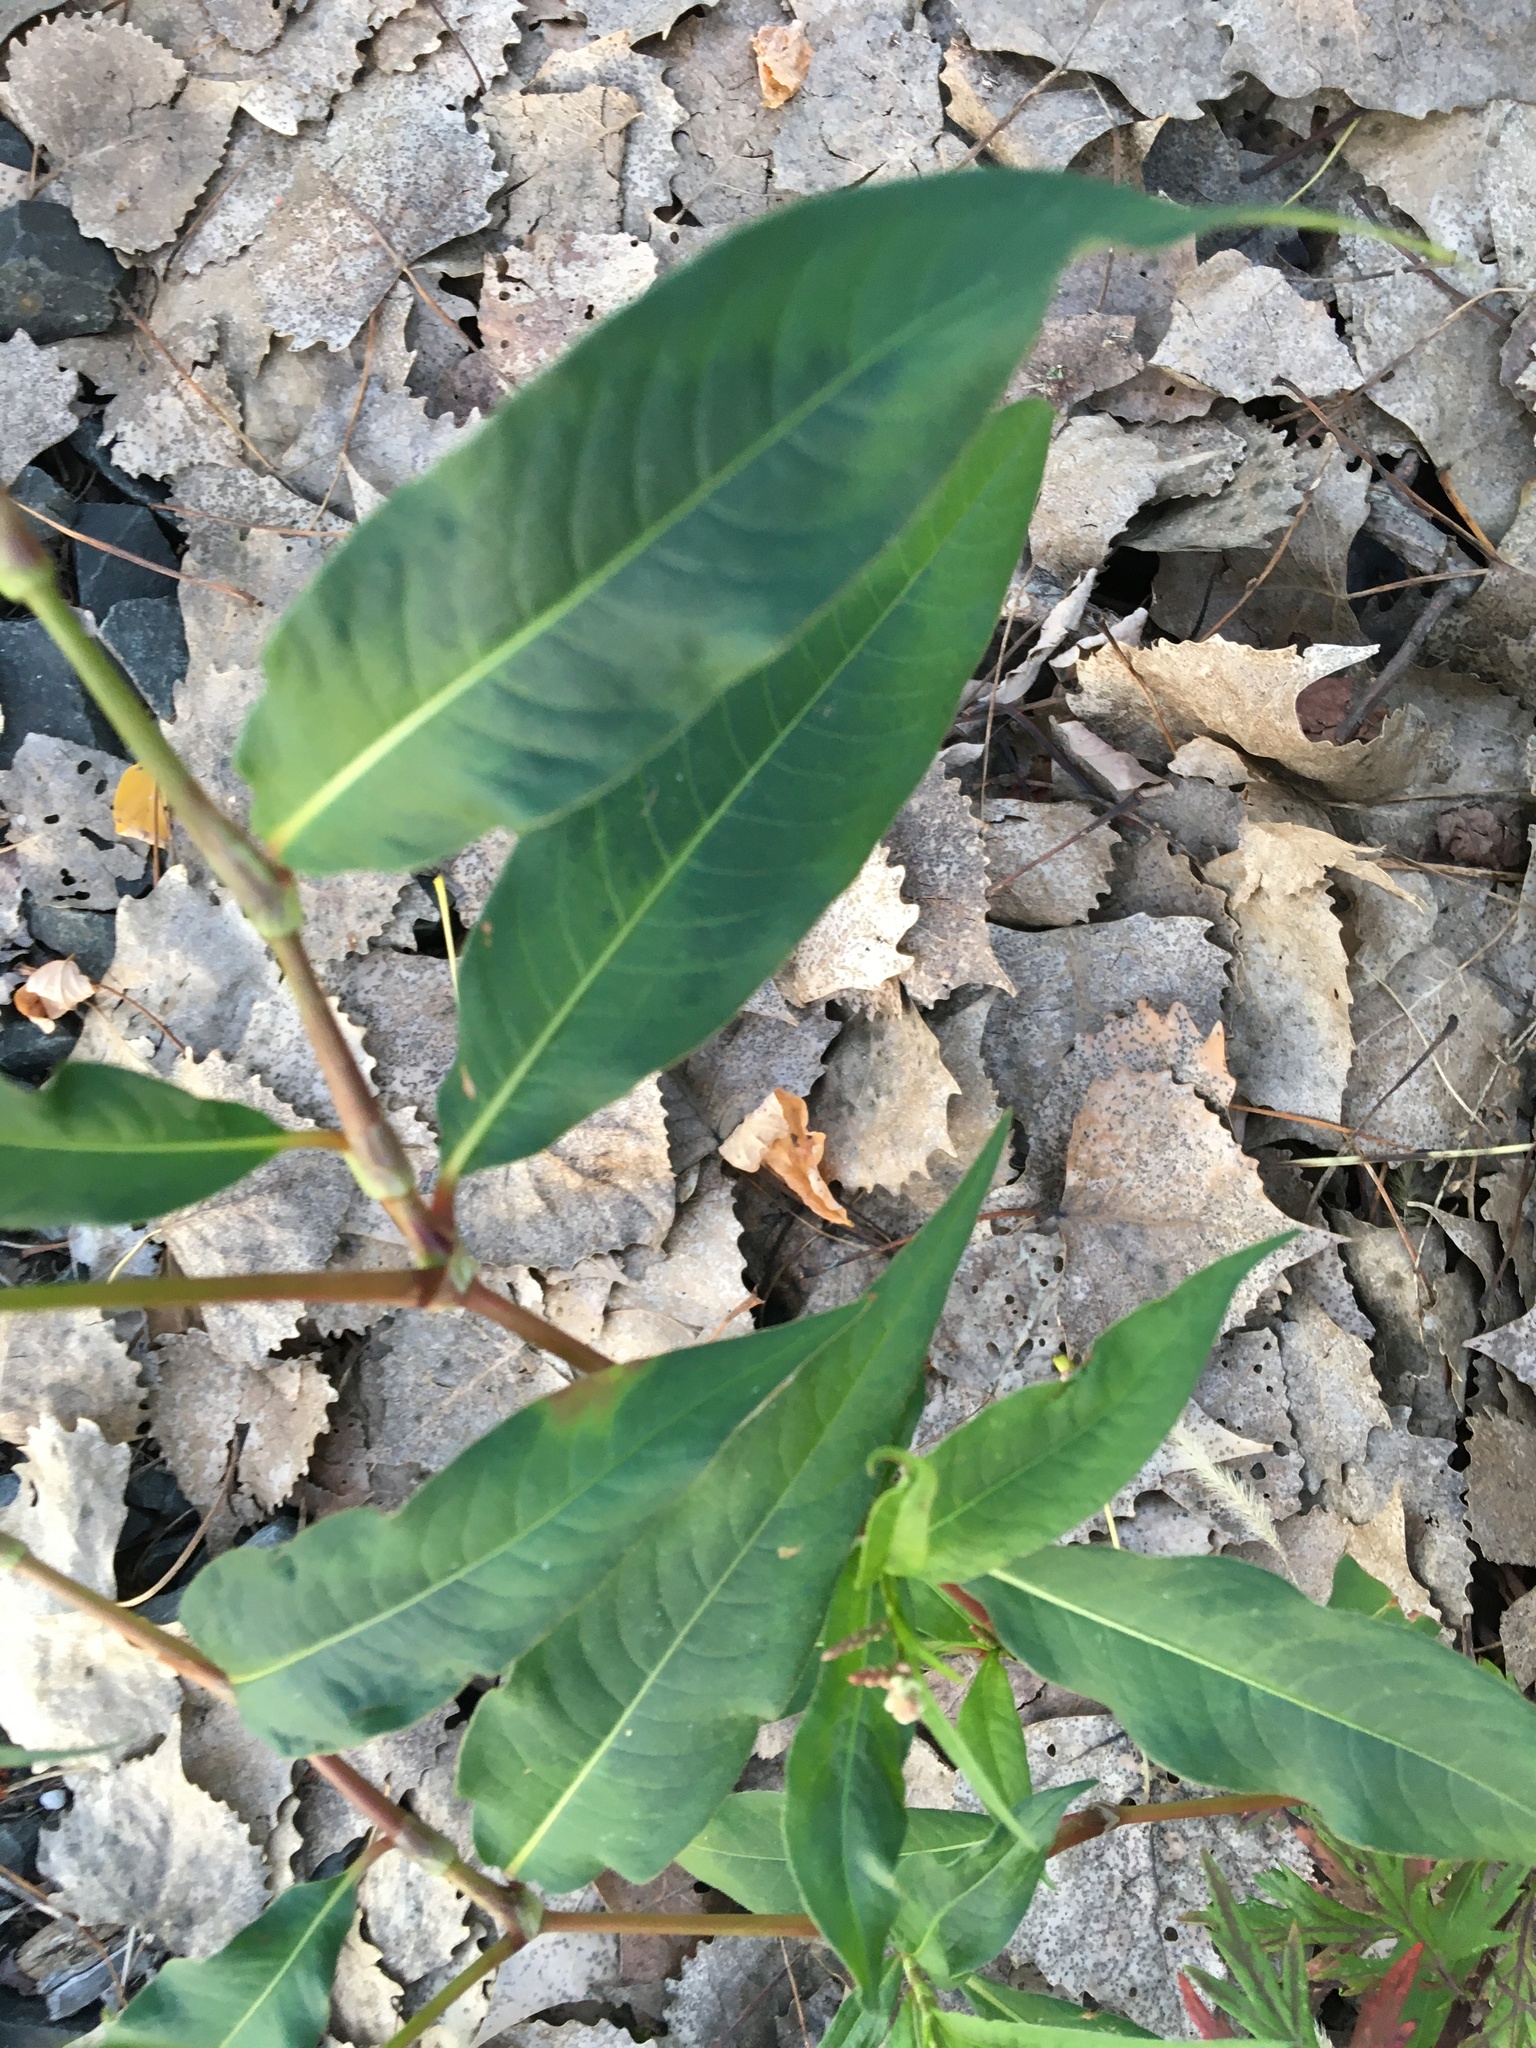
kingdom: Plantae
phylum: Tracheophyta
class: Magnoliopsida
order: Caryophyllales
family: Polygonaceae
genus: Persicaria
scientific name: Persicaria extremiorientalis
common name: Far-eastern smartweed
